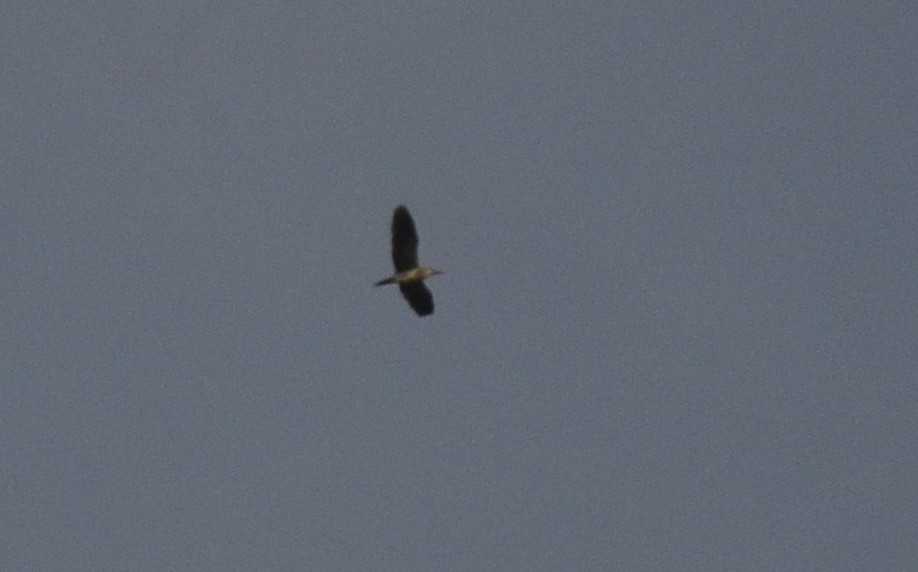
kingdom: Animalia
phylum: Chordata
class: Aves
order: Pelecaniformes
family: Ardeidae
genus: Nycticorax
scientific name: Nycticorax nycticorax
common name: Black-crowned night heron
